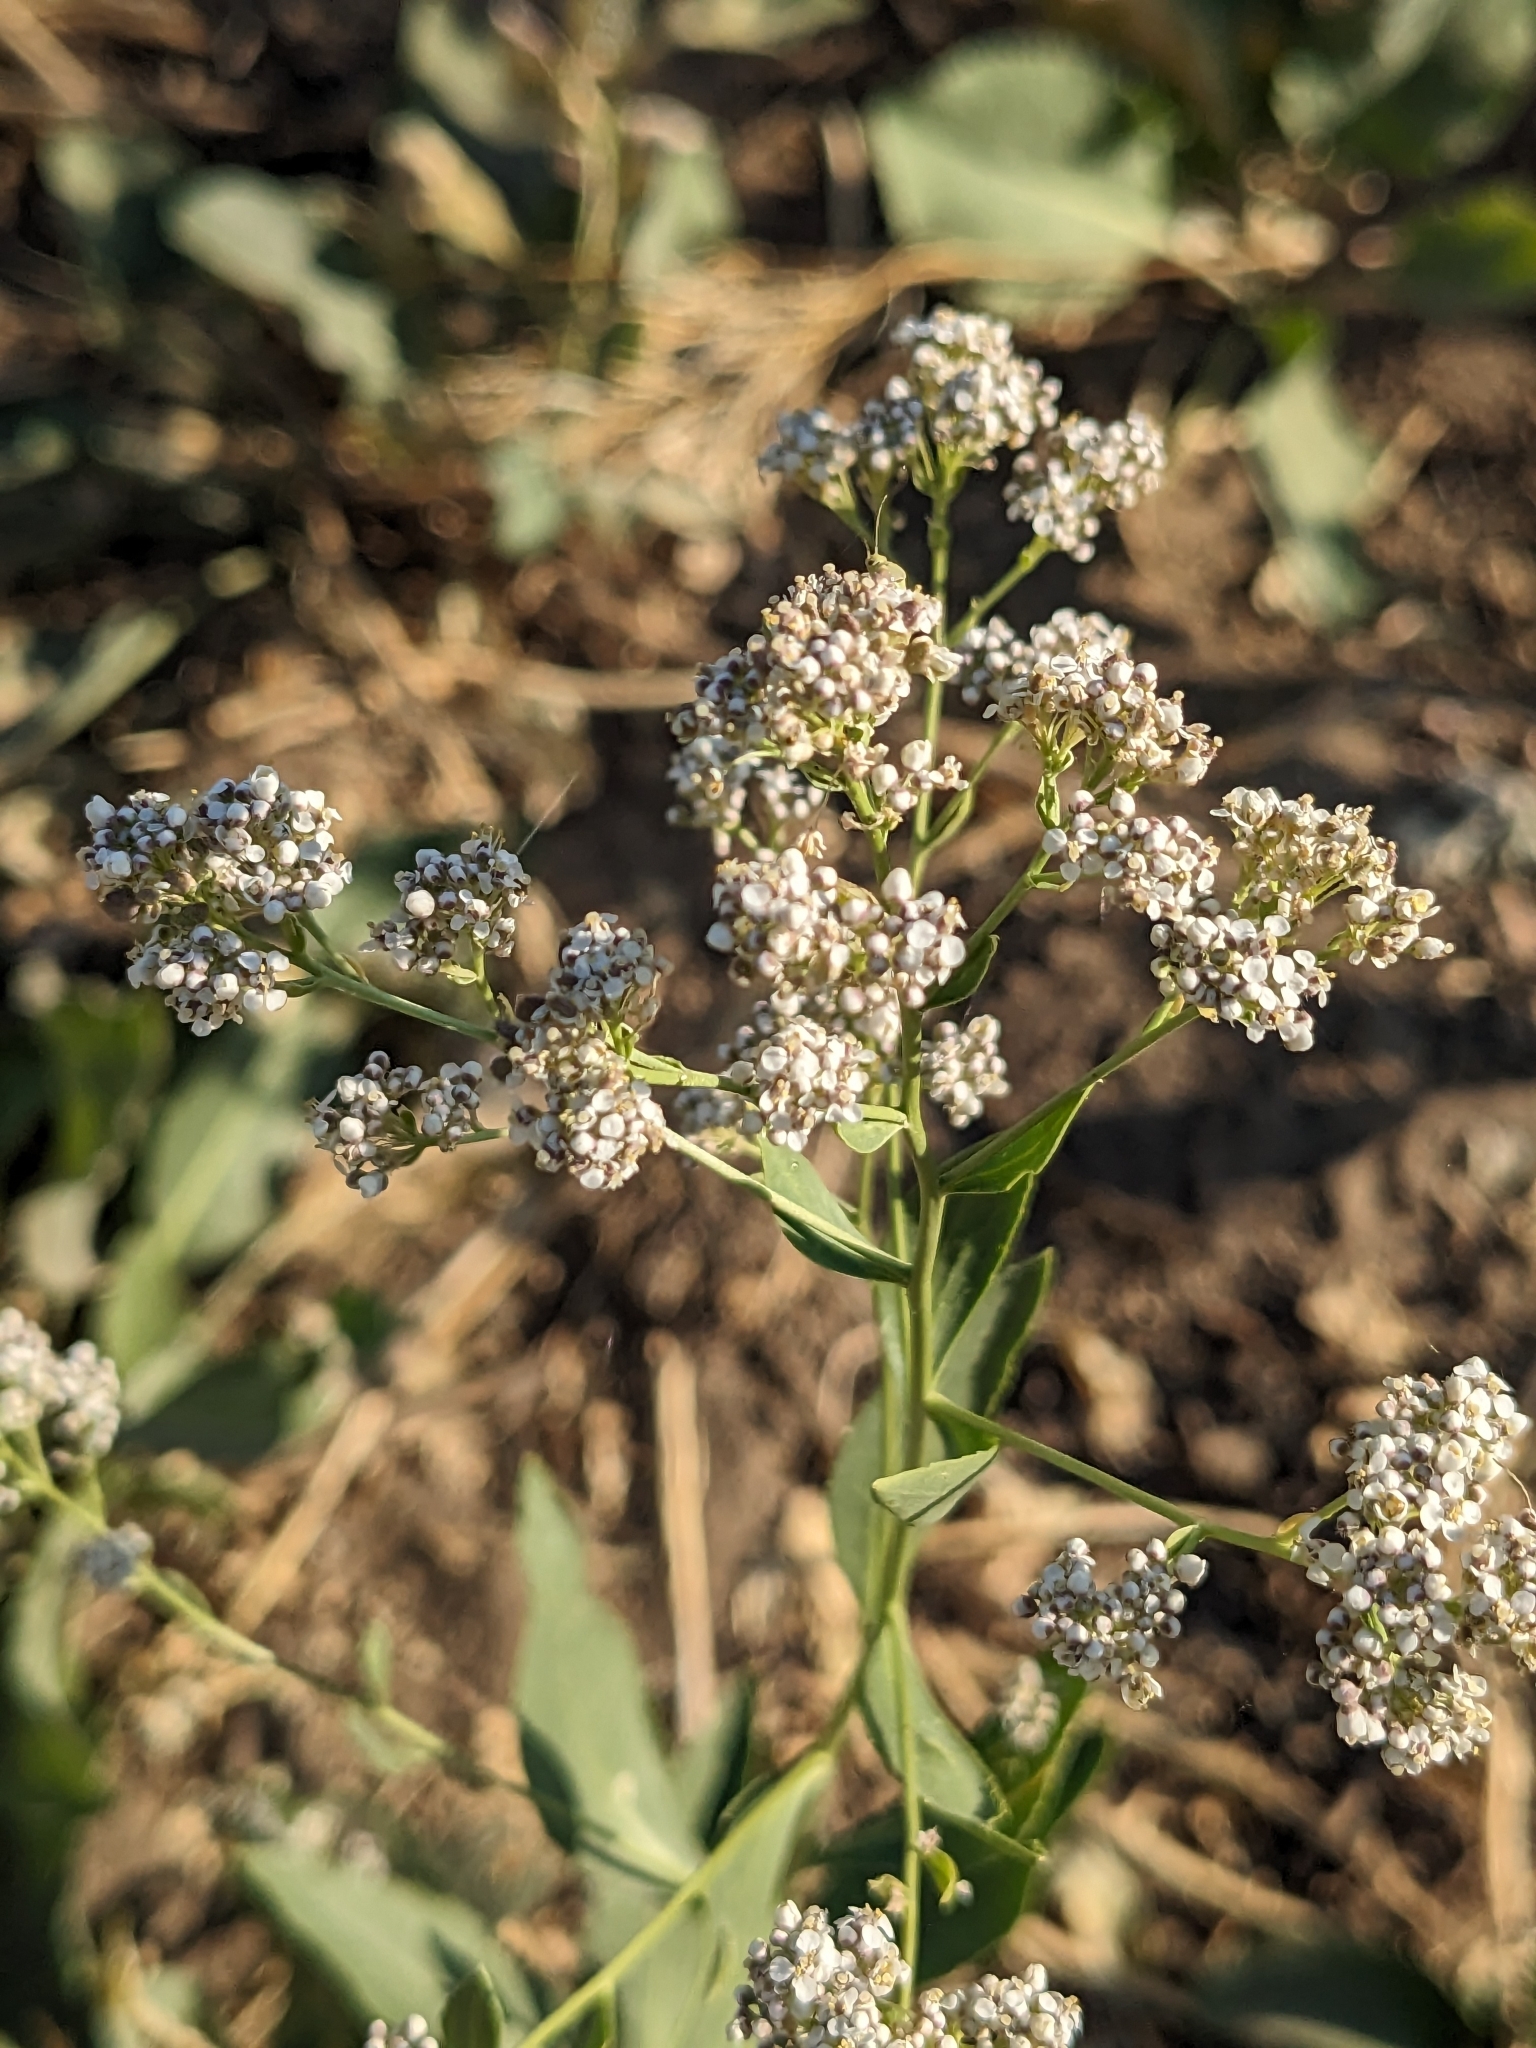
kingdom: Plantae
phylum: Tracheophyta
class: Magnoliopsida
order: Brassicales
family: Brassicaceae
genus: Lepidium
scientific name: Lepidium latifolium
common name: Dittander
